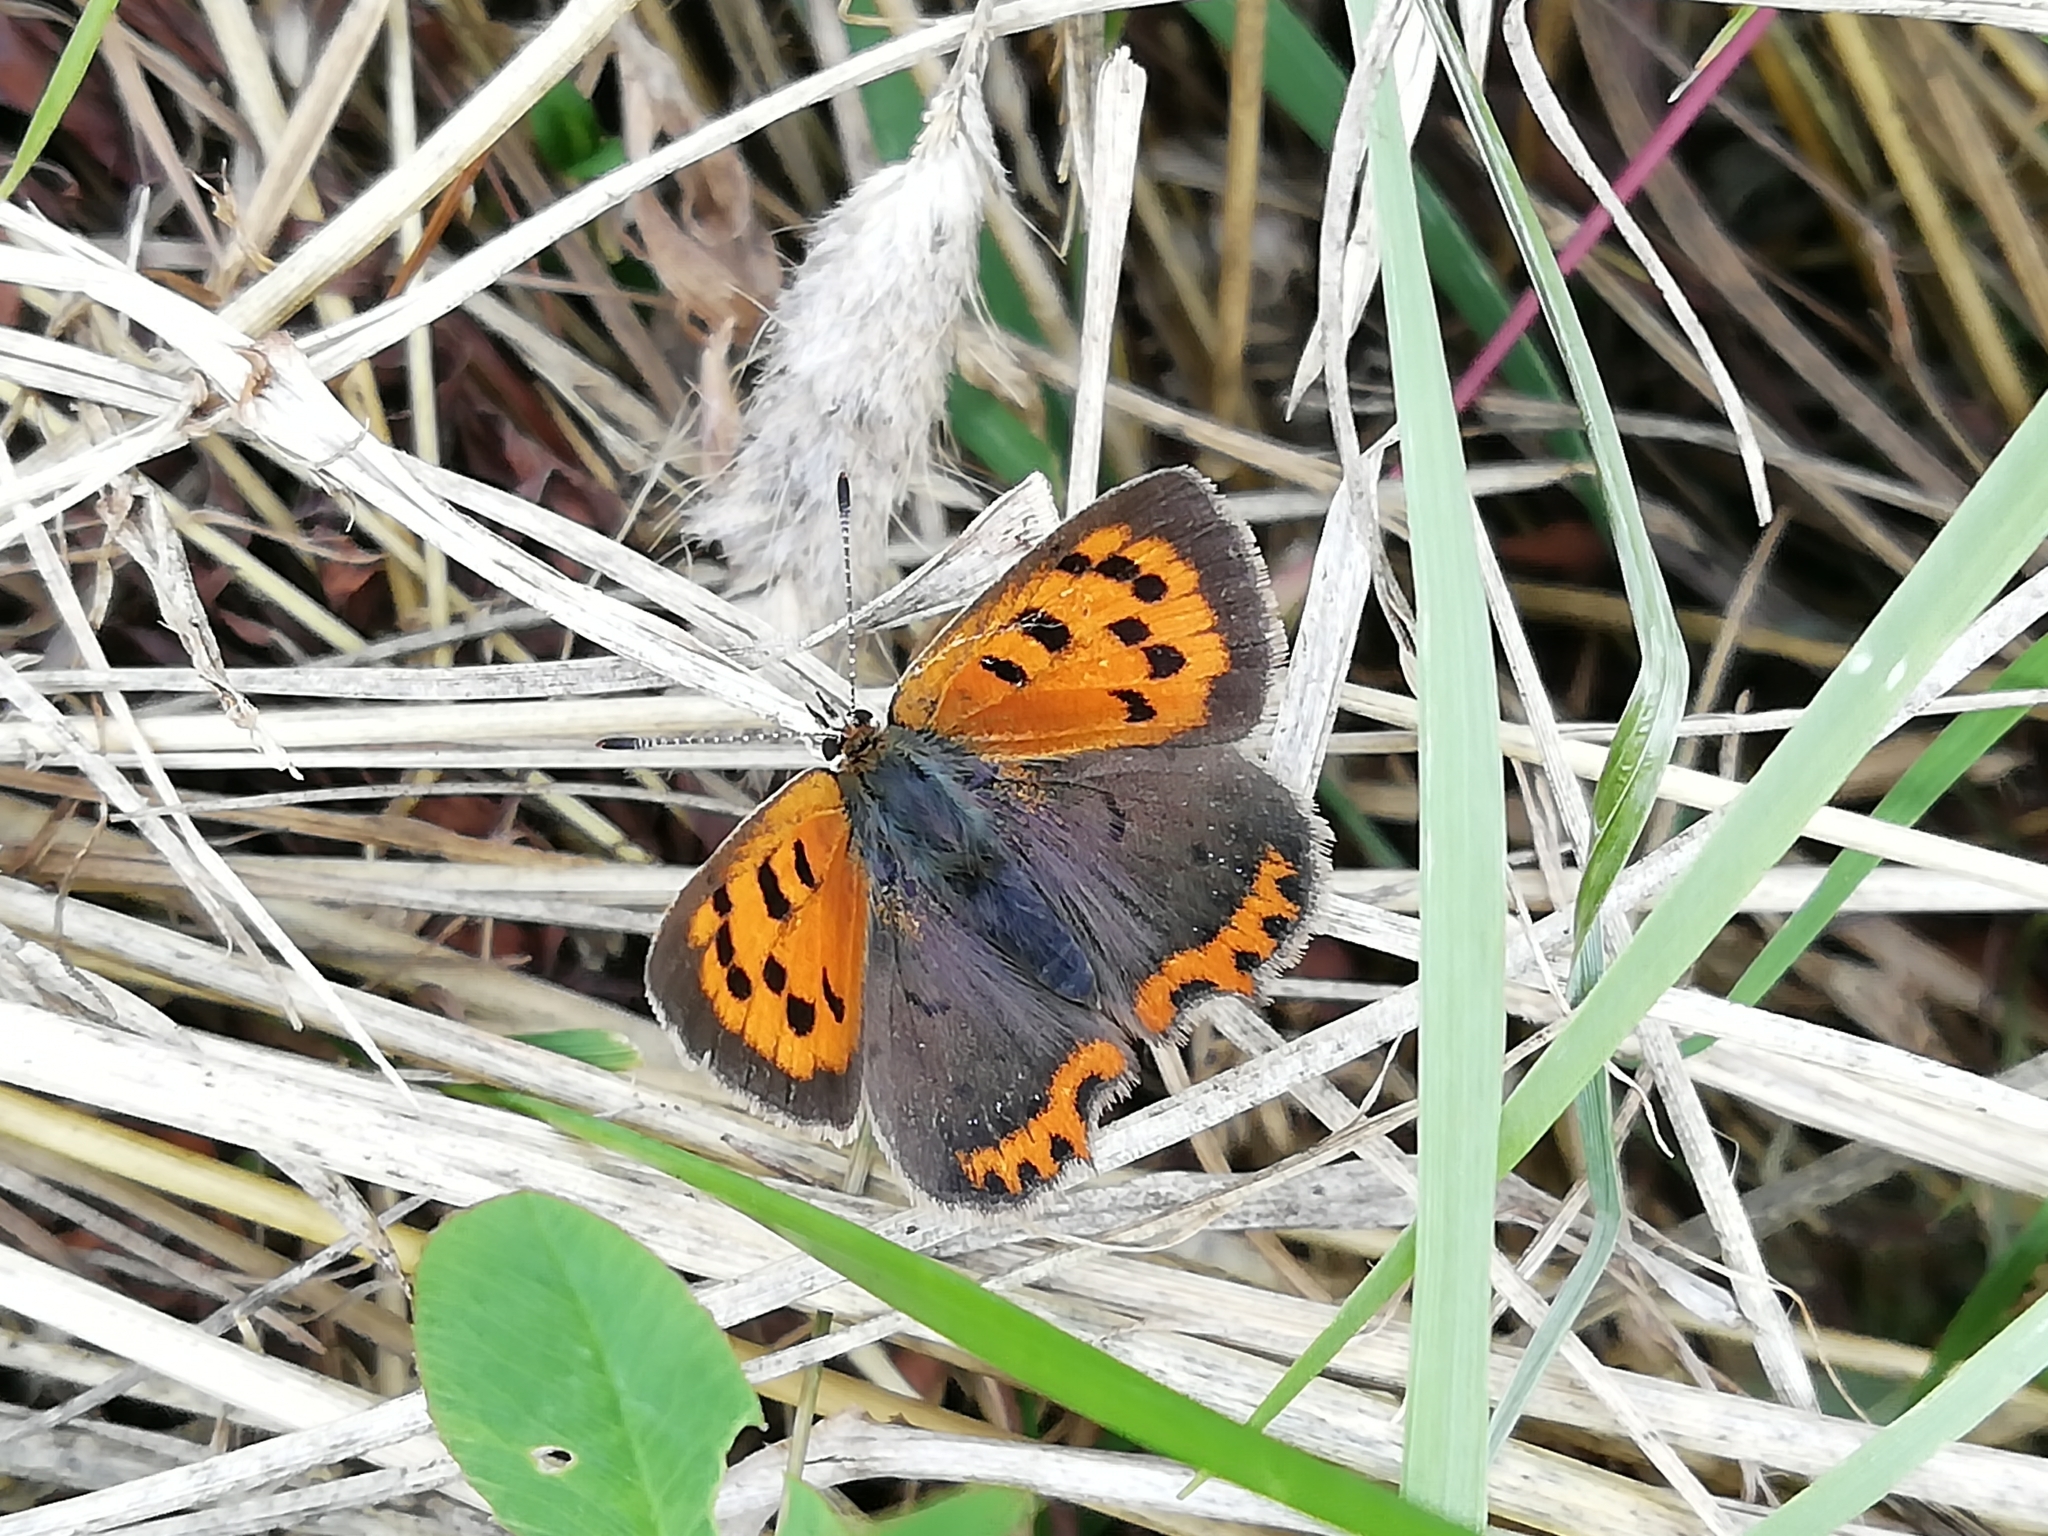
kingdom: Animalia
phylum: Arthropoda
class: Insecta
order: Lepidoptera
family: Lycaenidae
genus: Lycaena
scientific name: Lycaena phlaeas
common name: Small copper
